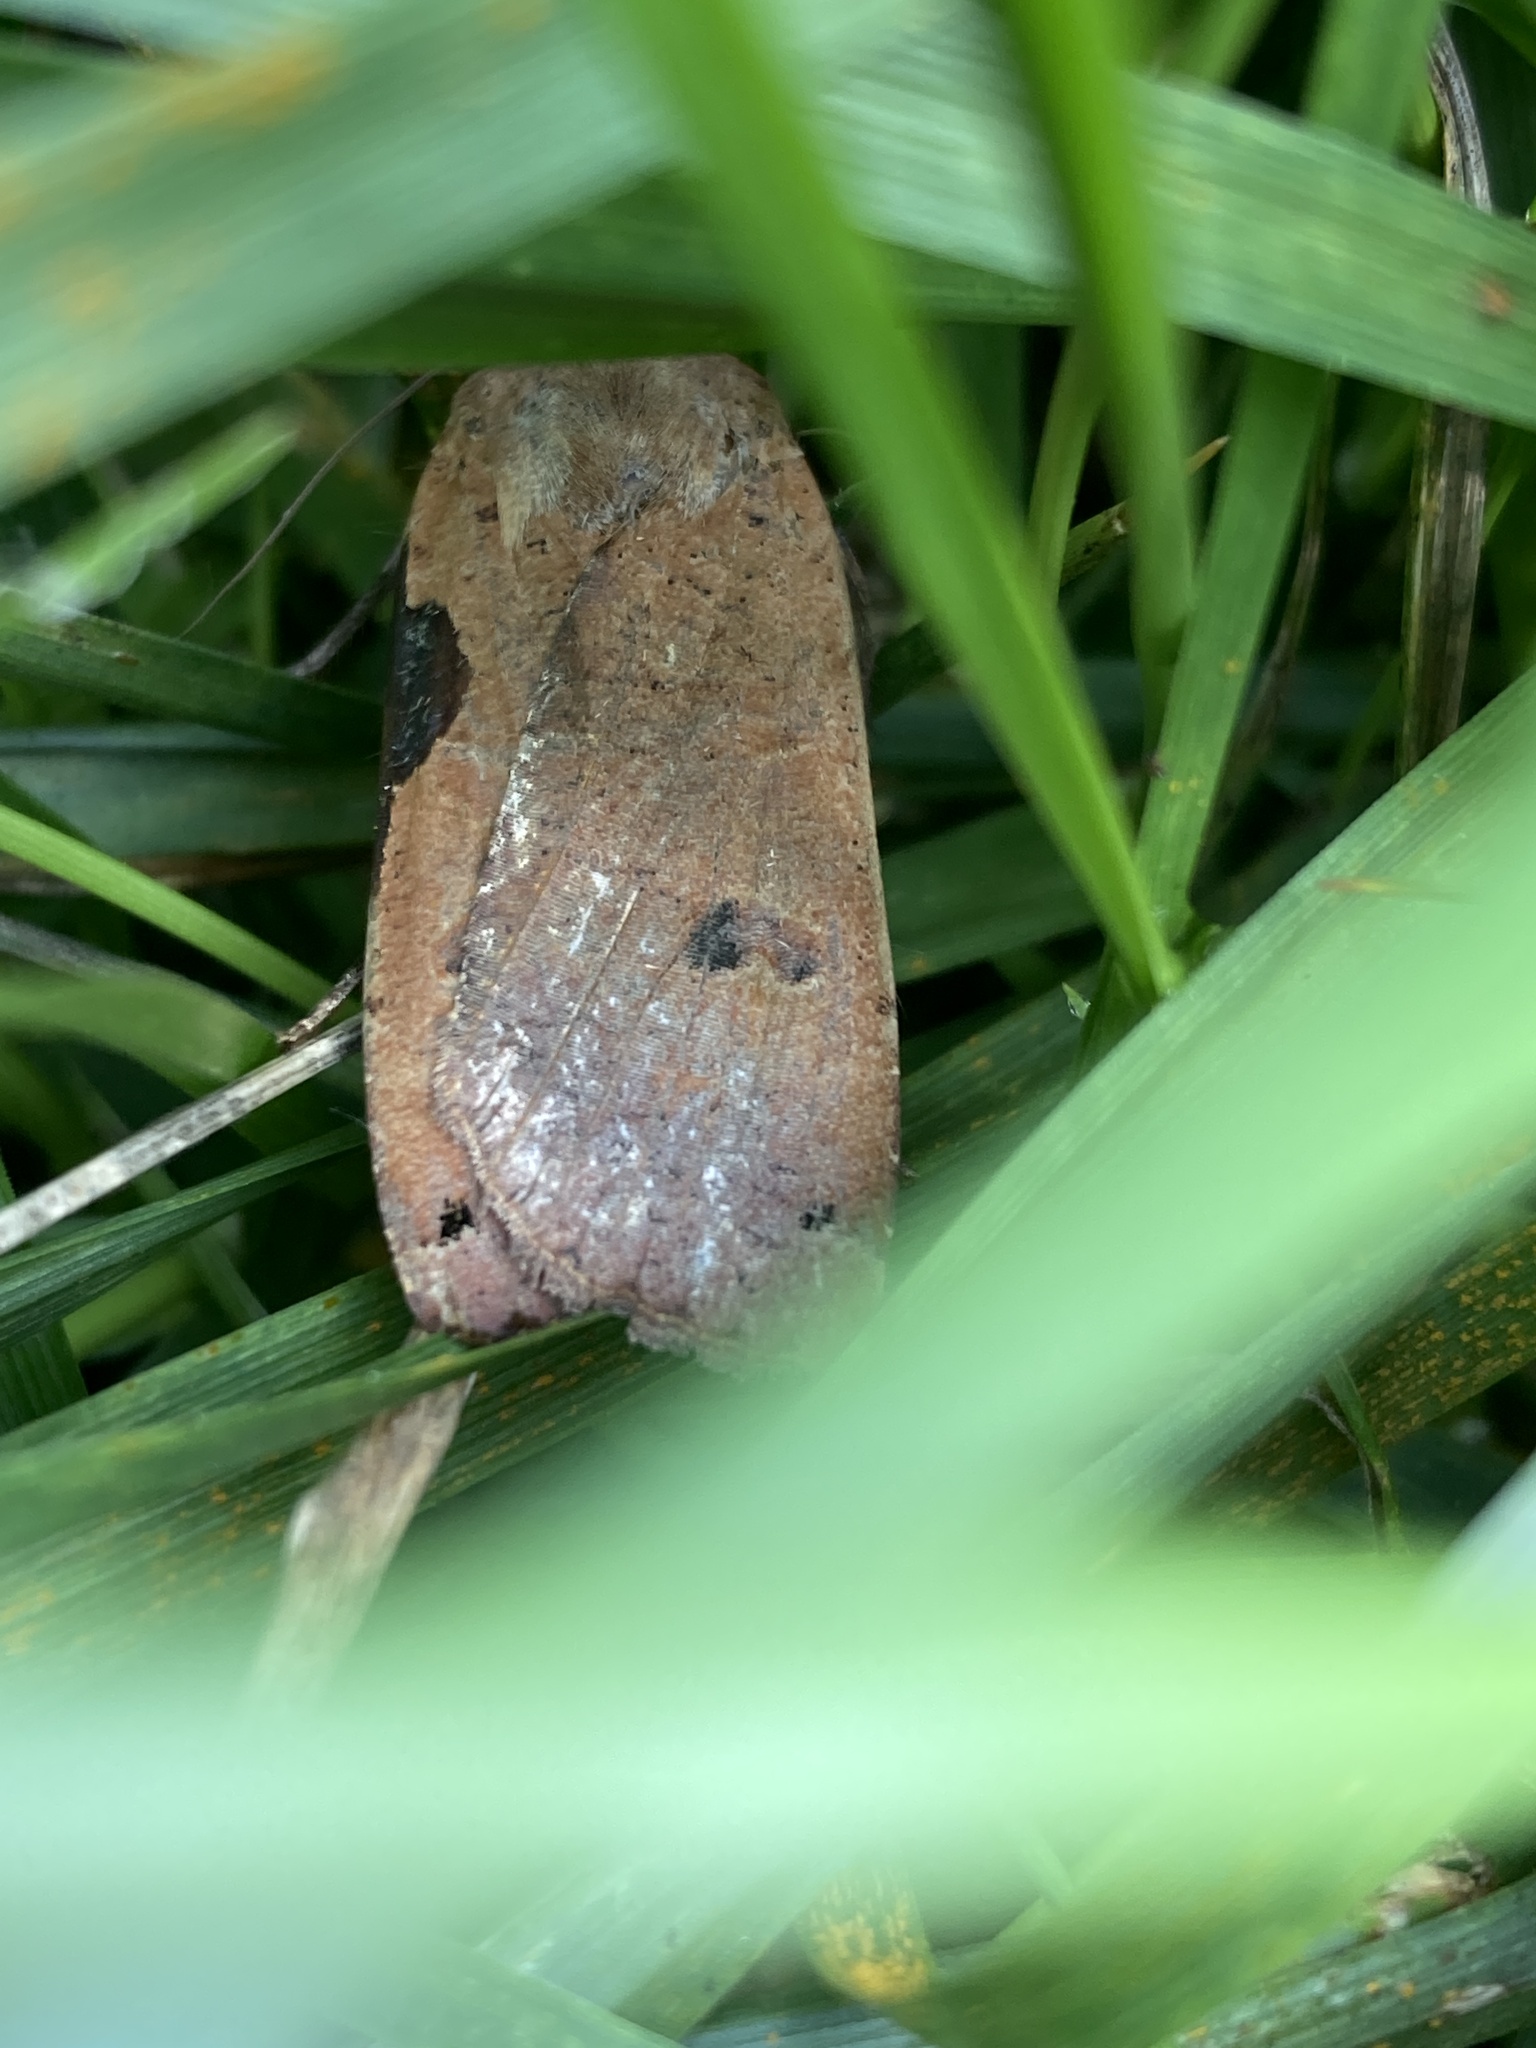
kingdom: Animalia
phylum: Arthropoda
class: Insecta
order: Lepidoptera
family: Noctuidae
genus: Noctua
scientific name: Noctua pronuba
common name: Large yellow underwing
